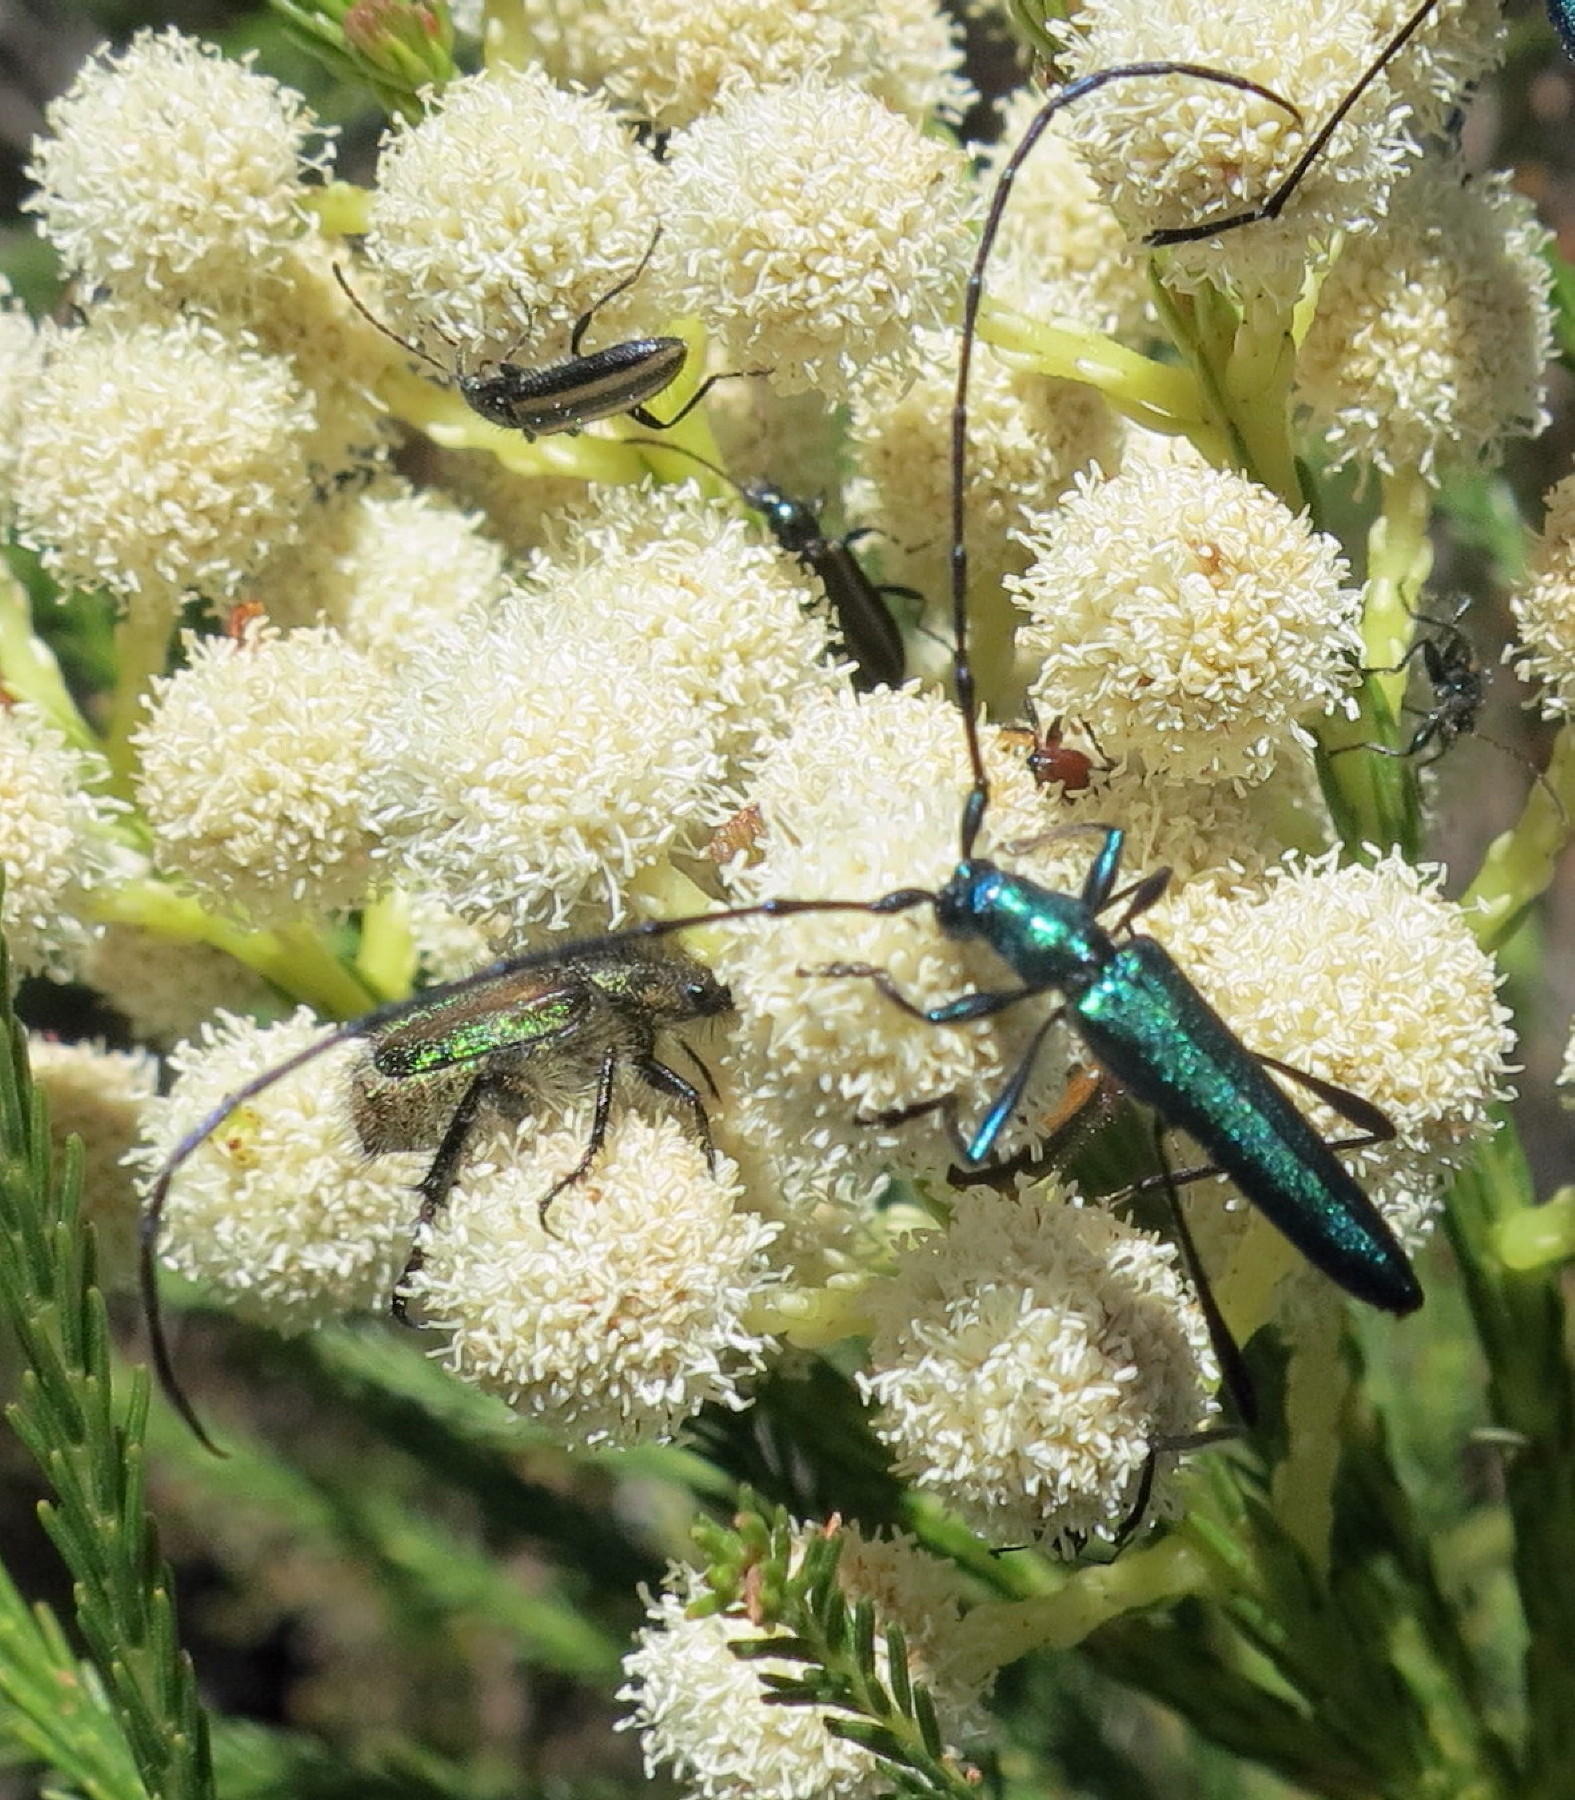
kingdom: Animalia
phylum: Arthropoda
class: Insecta
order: Coleoptera
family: Cerambycidae
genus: Promeces
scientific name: Promeces longipes
